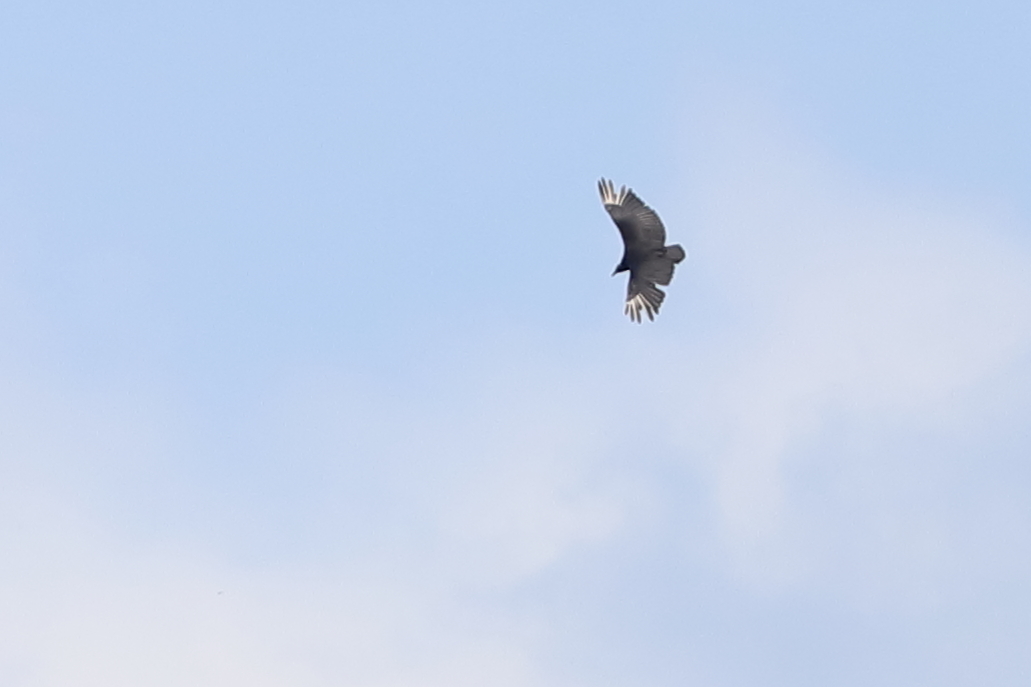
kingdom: Animalia
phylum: Chordata
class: Aves
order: Accipitriformes
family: Cathartidae
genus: Coragyps
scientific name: Coragyps atratus
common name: Black vulture
